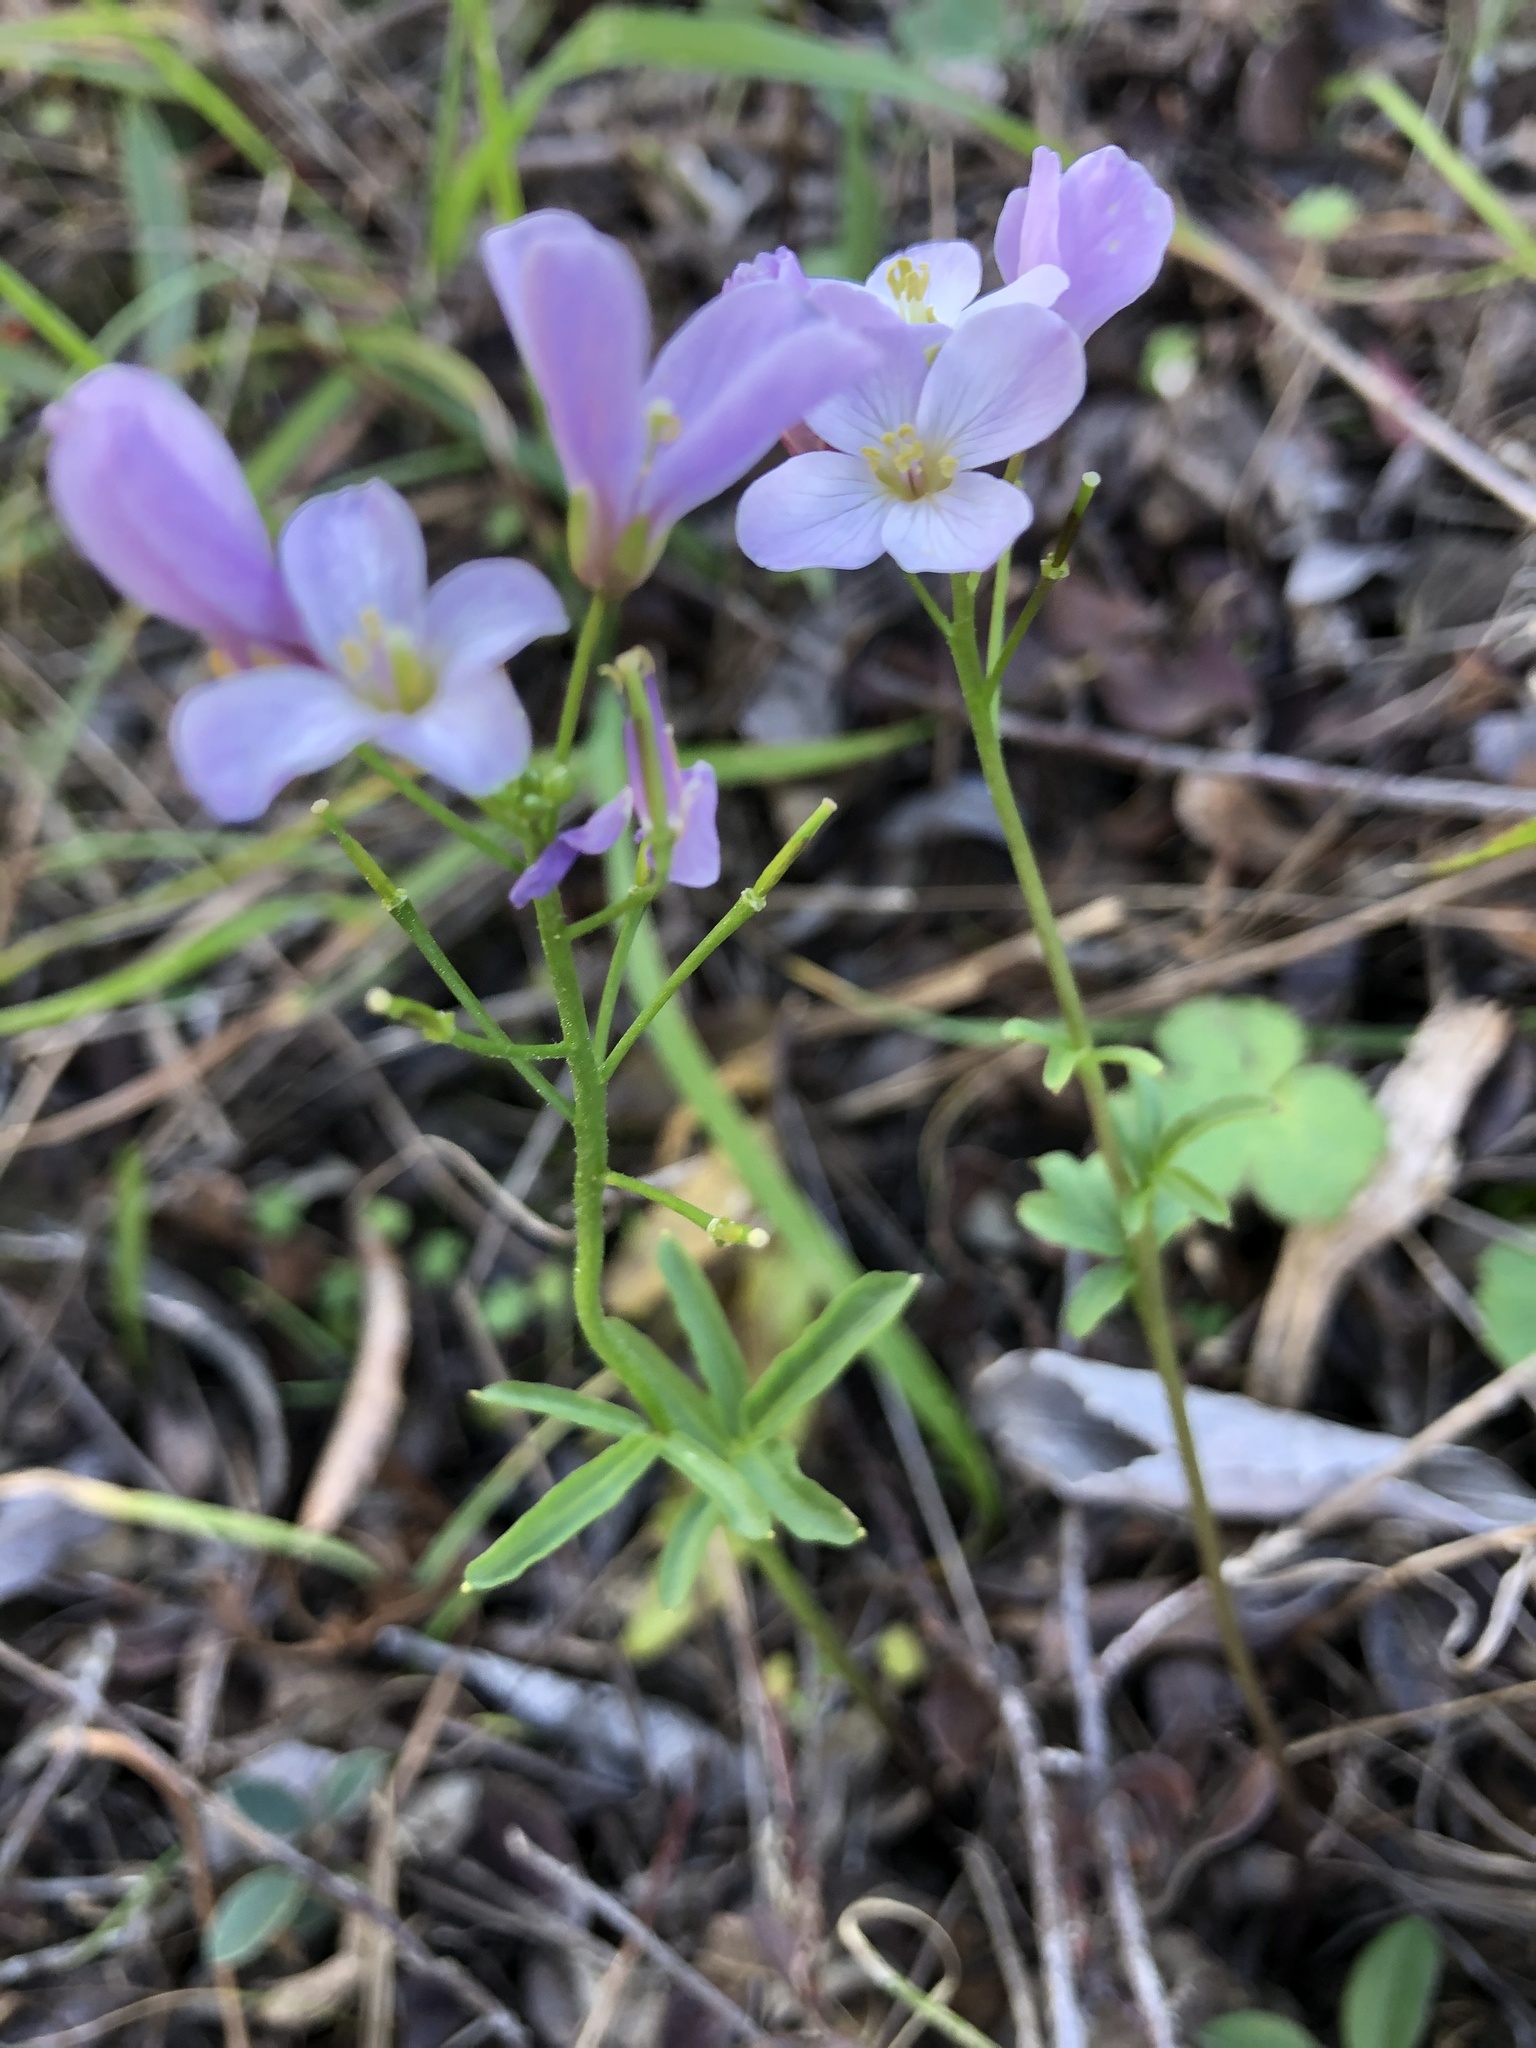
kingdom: Plantae
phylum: Tracheophyta
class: Magnoliopsida
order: Brassicales
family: Brassicaceae
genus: Cardamine
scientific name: Cardamine californica
